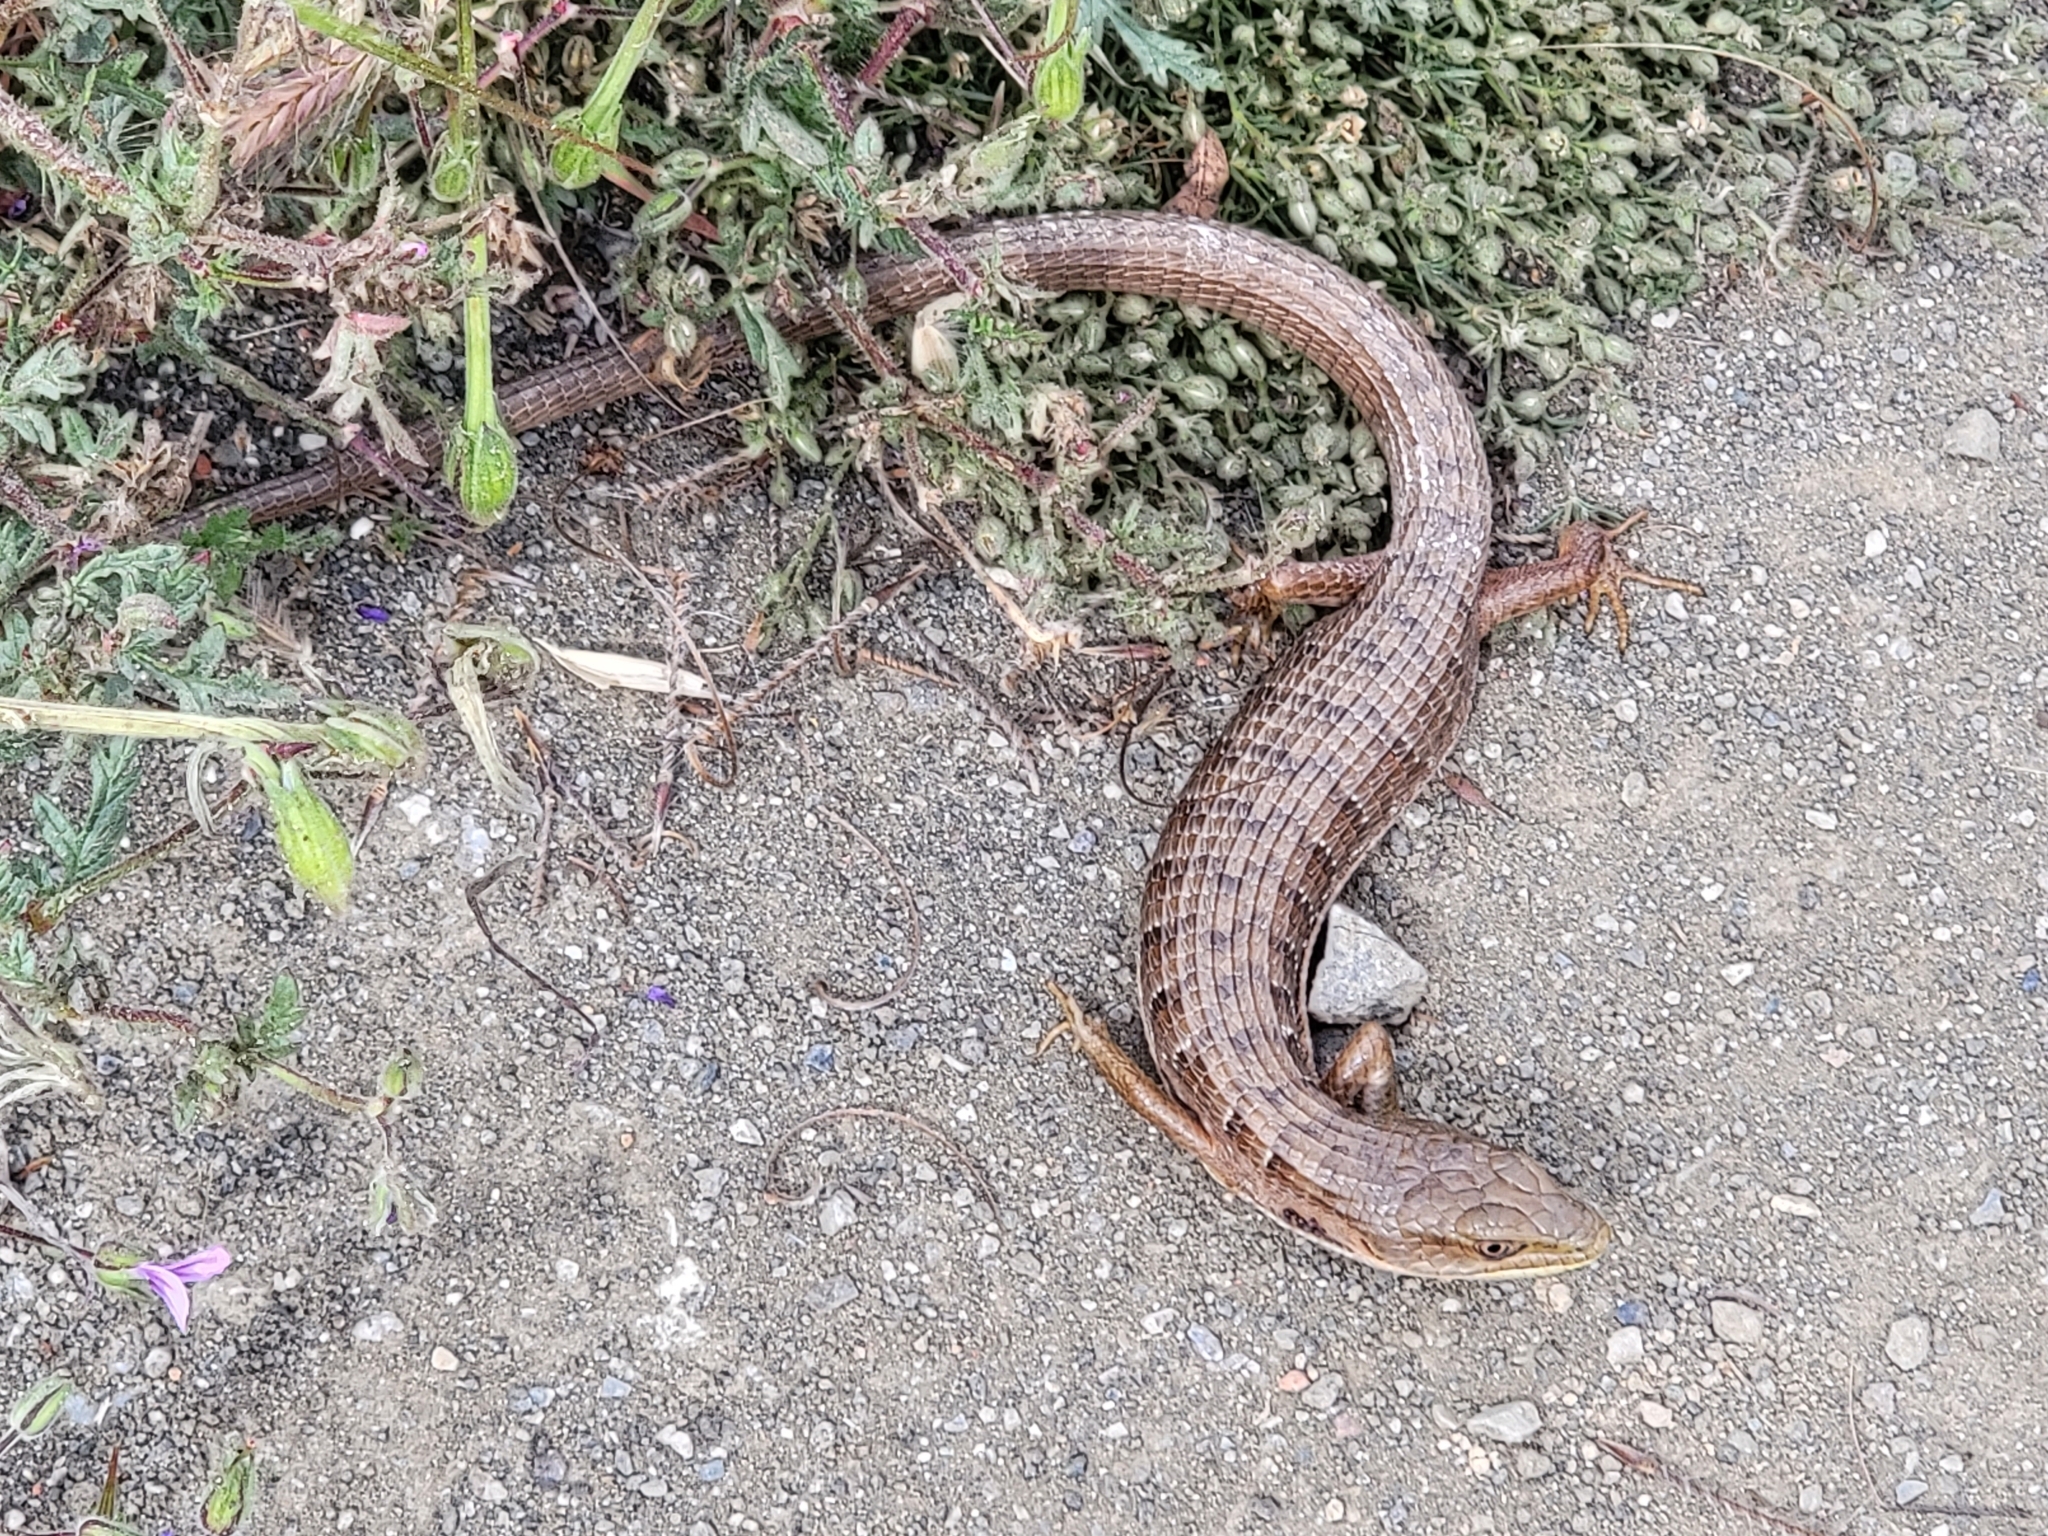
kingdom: Animalia
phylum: Chordata
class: Squamata
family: Anguidae
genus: Elgaria
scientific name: Elgaria multicarinata
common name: Southern alligator lizard
